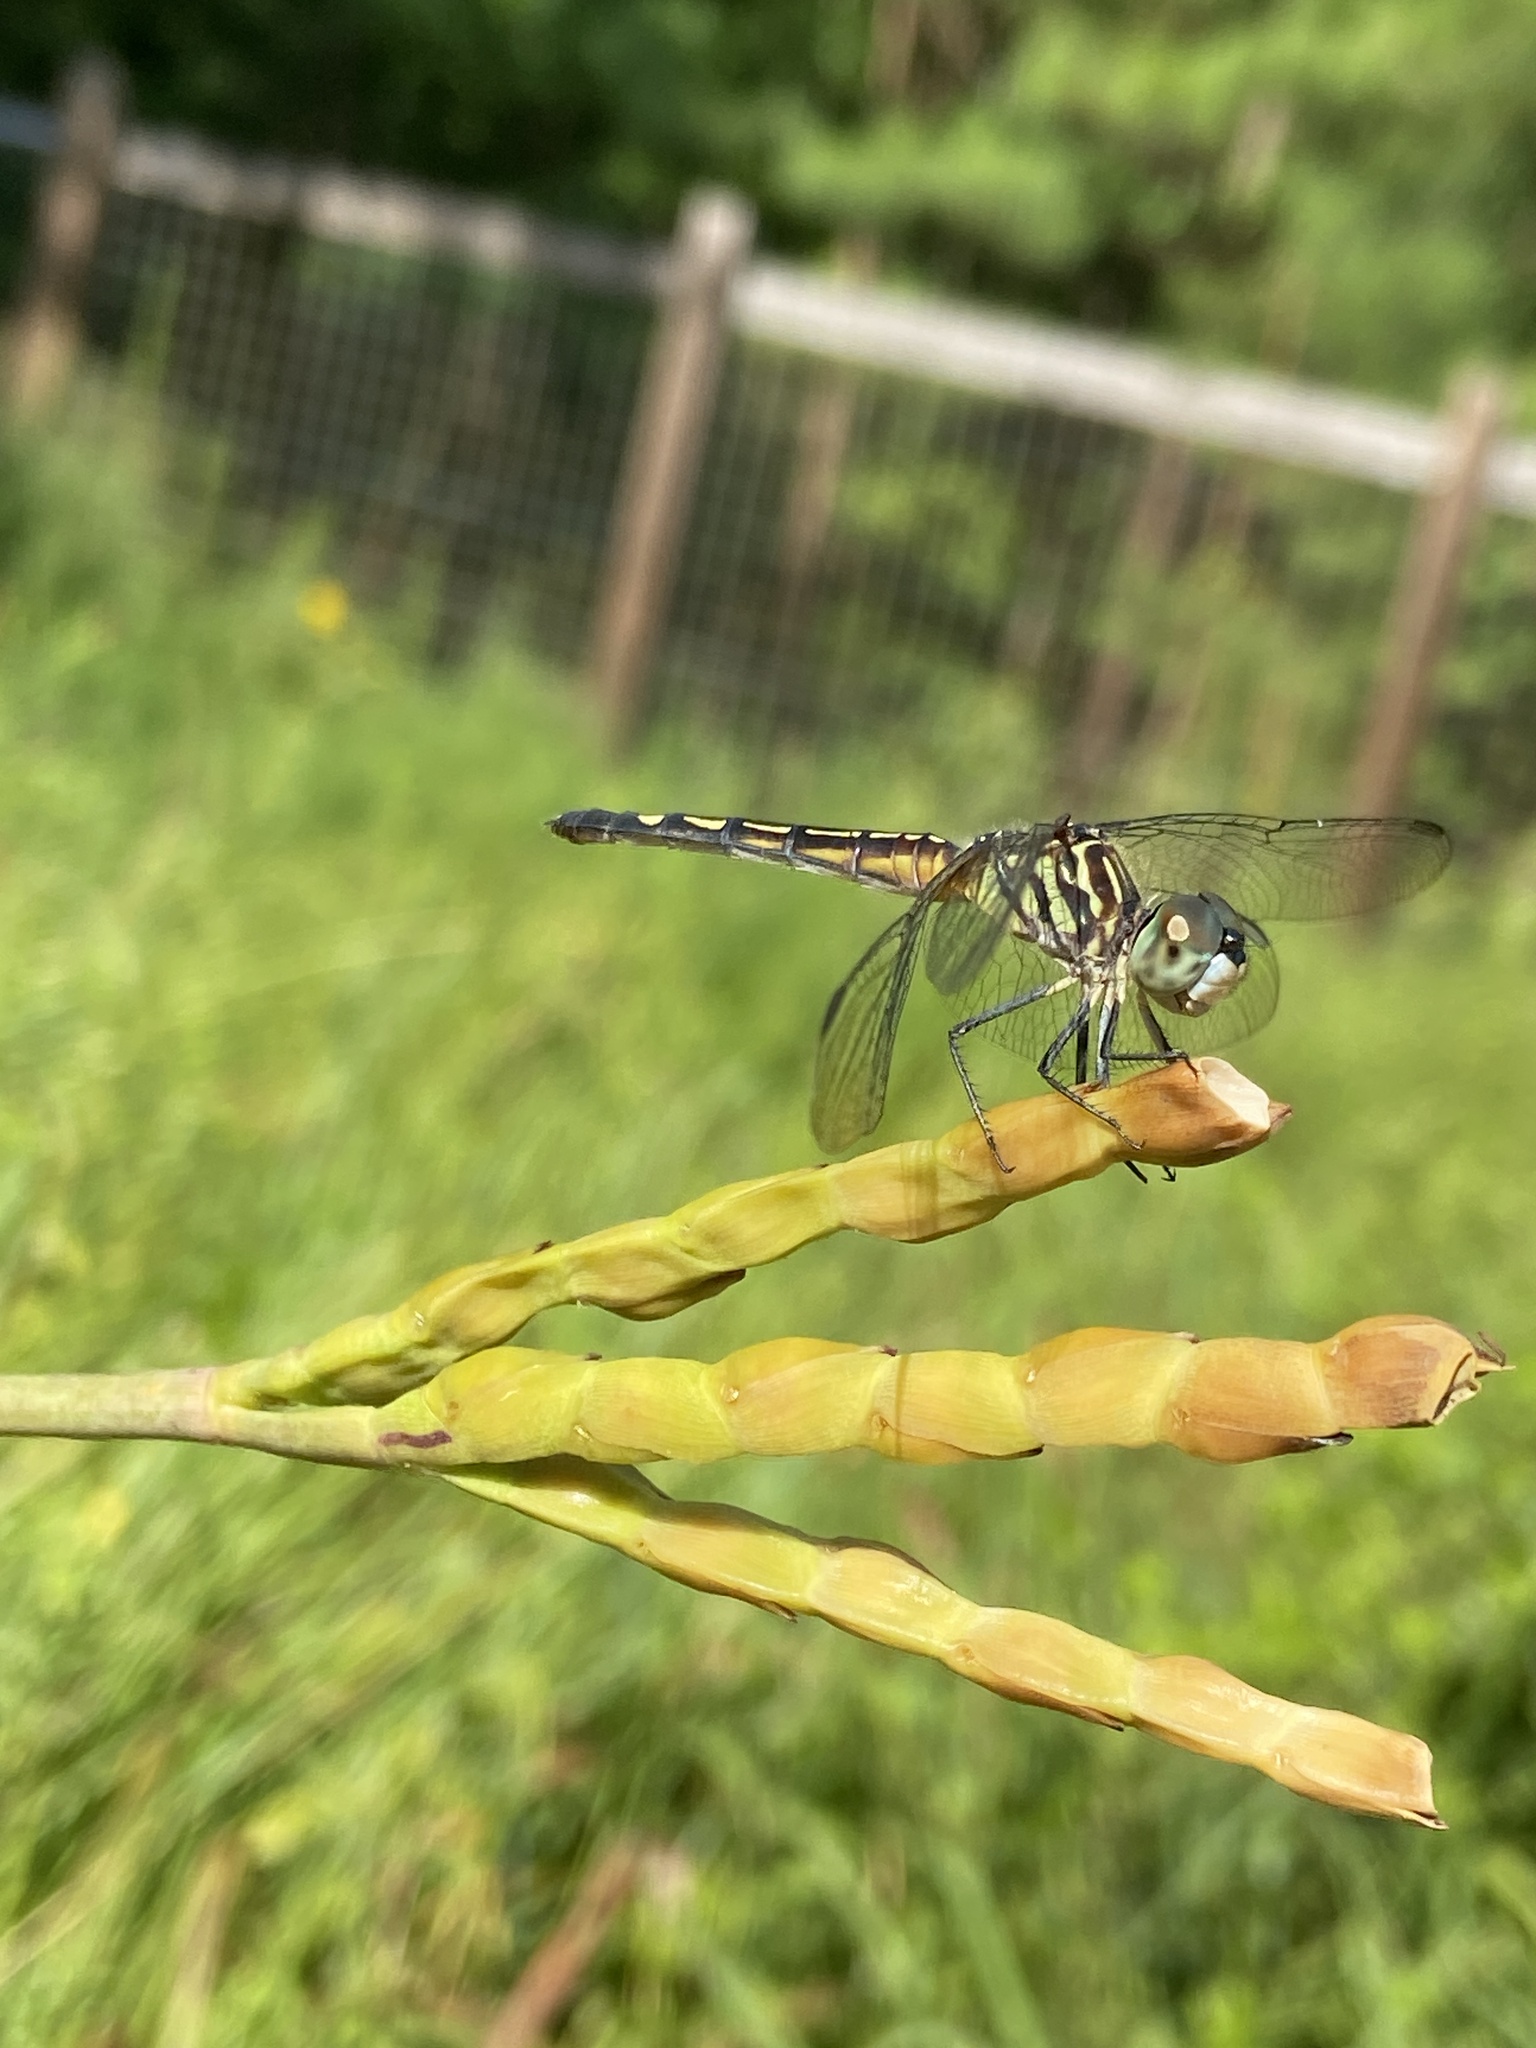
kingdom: Animalia
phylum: Arthropoda
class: Insecta
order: Odonata
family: Libellulidae
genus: Pachydiplax
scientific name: Pachydiplax longipennis
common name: Blue dasher
